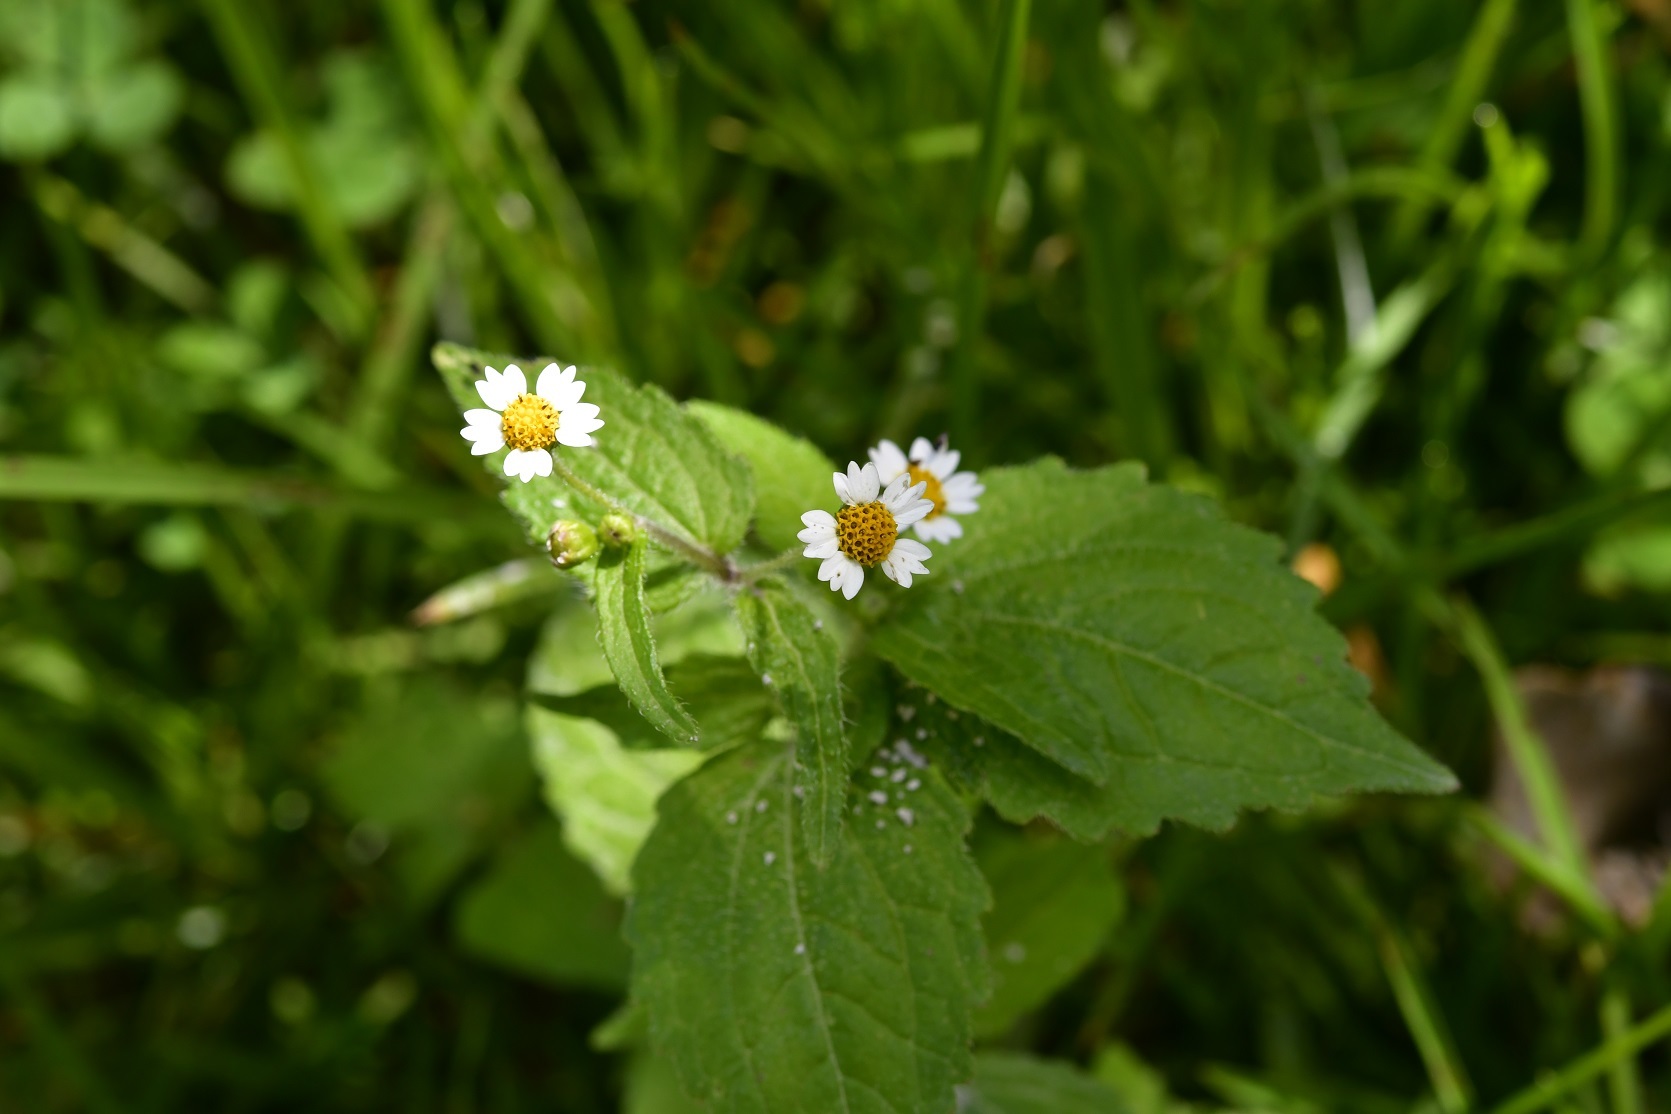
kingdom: Plantae
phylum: Tracheophyta
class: Magnoliopsida
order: Asterales
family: Asteraceae
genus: Galinsoga
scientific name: Galinsoga quadriradiata
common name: Shaggy soldier
